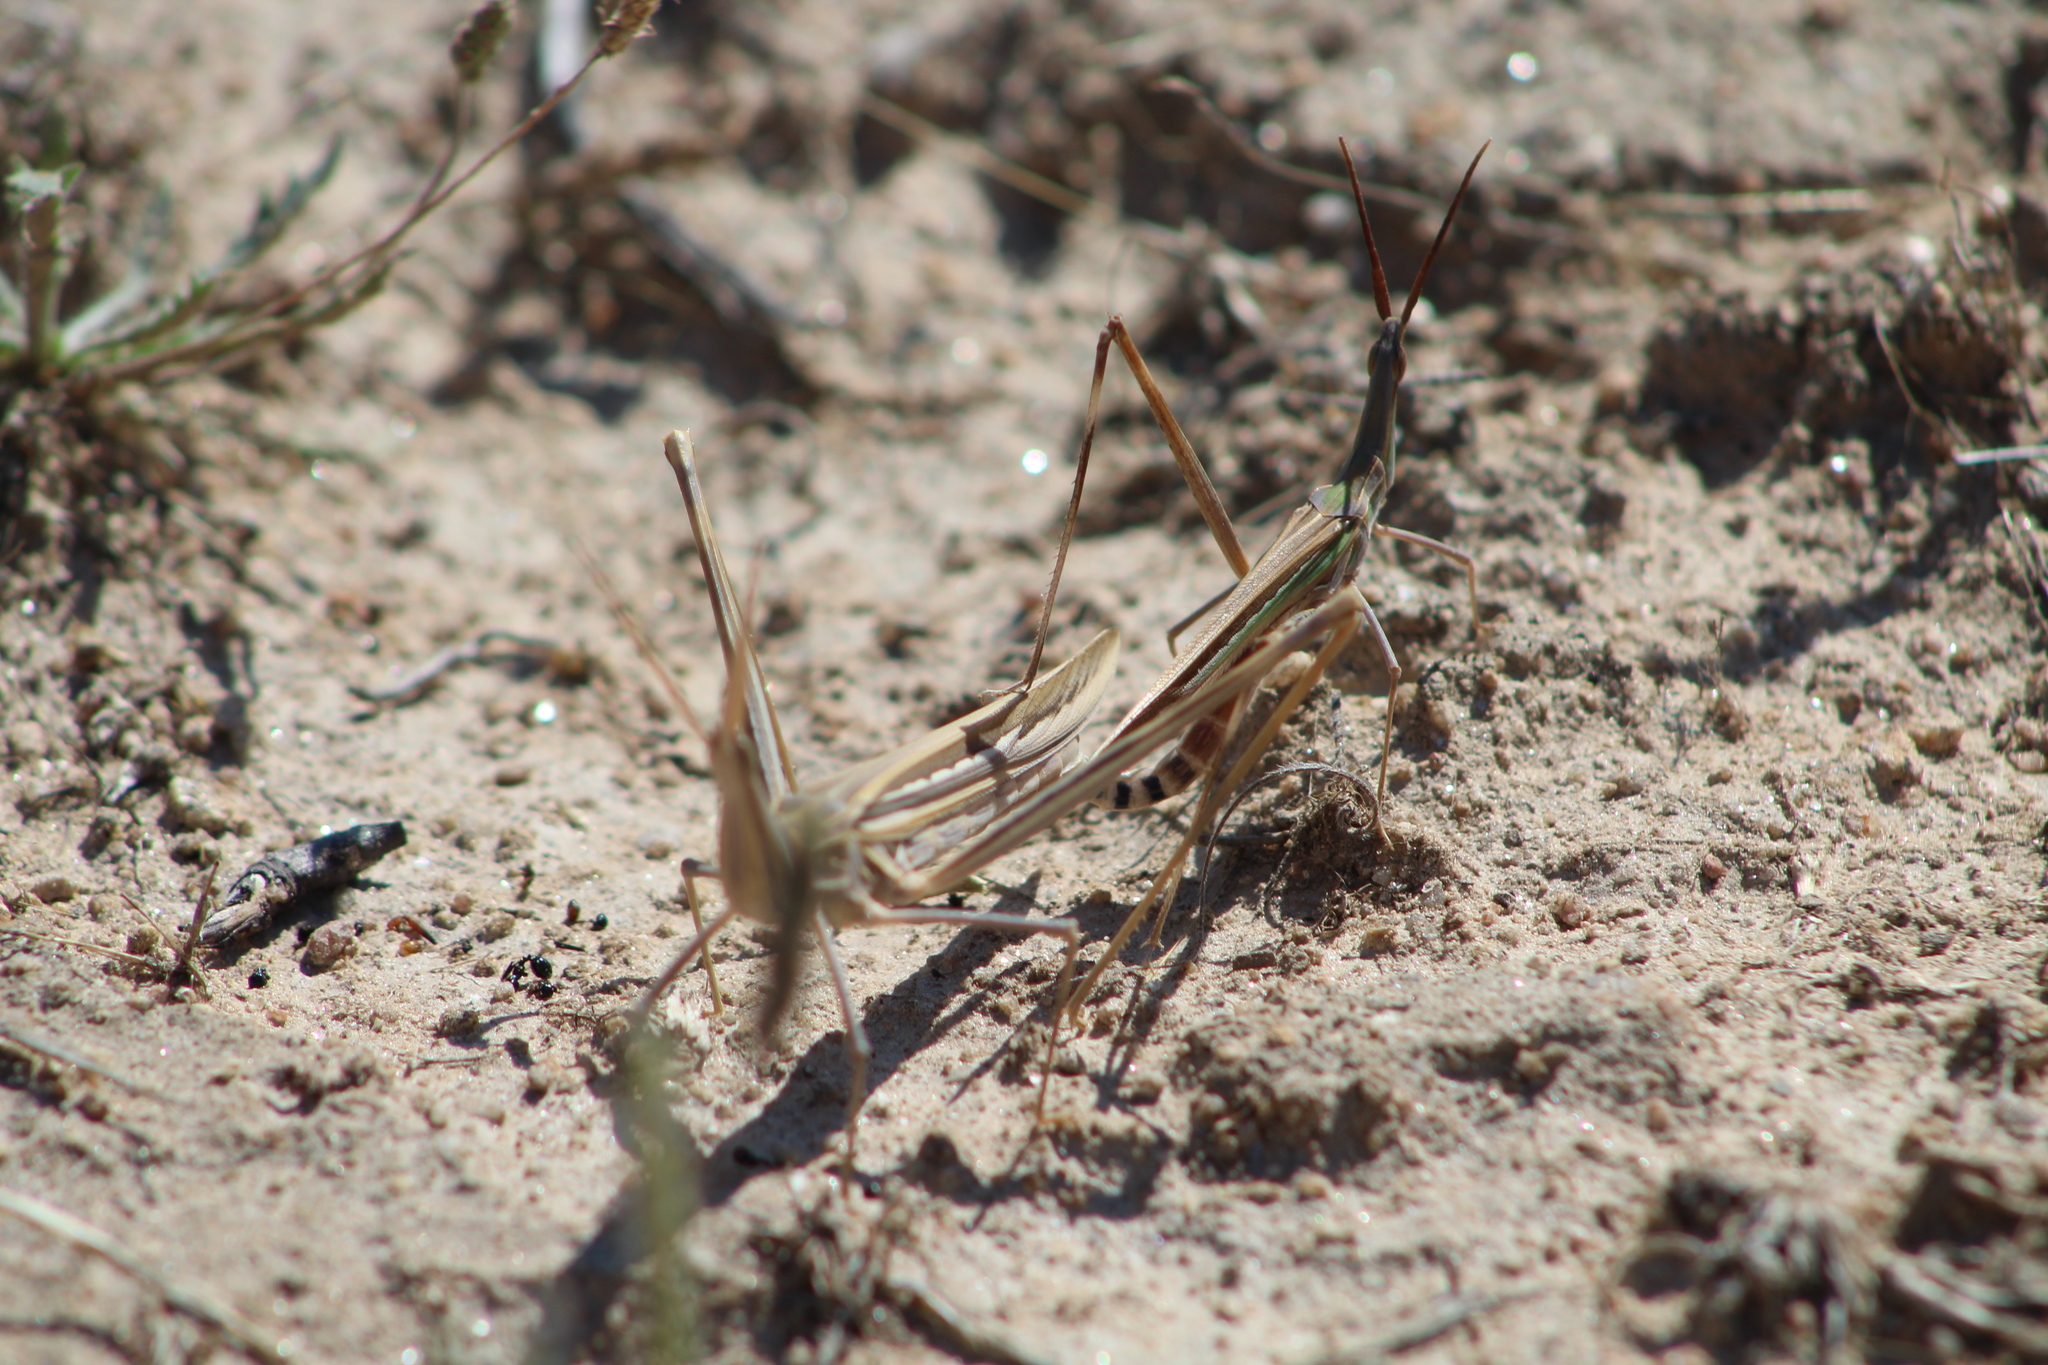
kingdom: Animalia
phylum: Arthropoda
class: Insecta
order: Orthoptera
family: Acrididae
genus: Truxalis
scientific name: Truxalis nasuta
